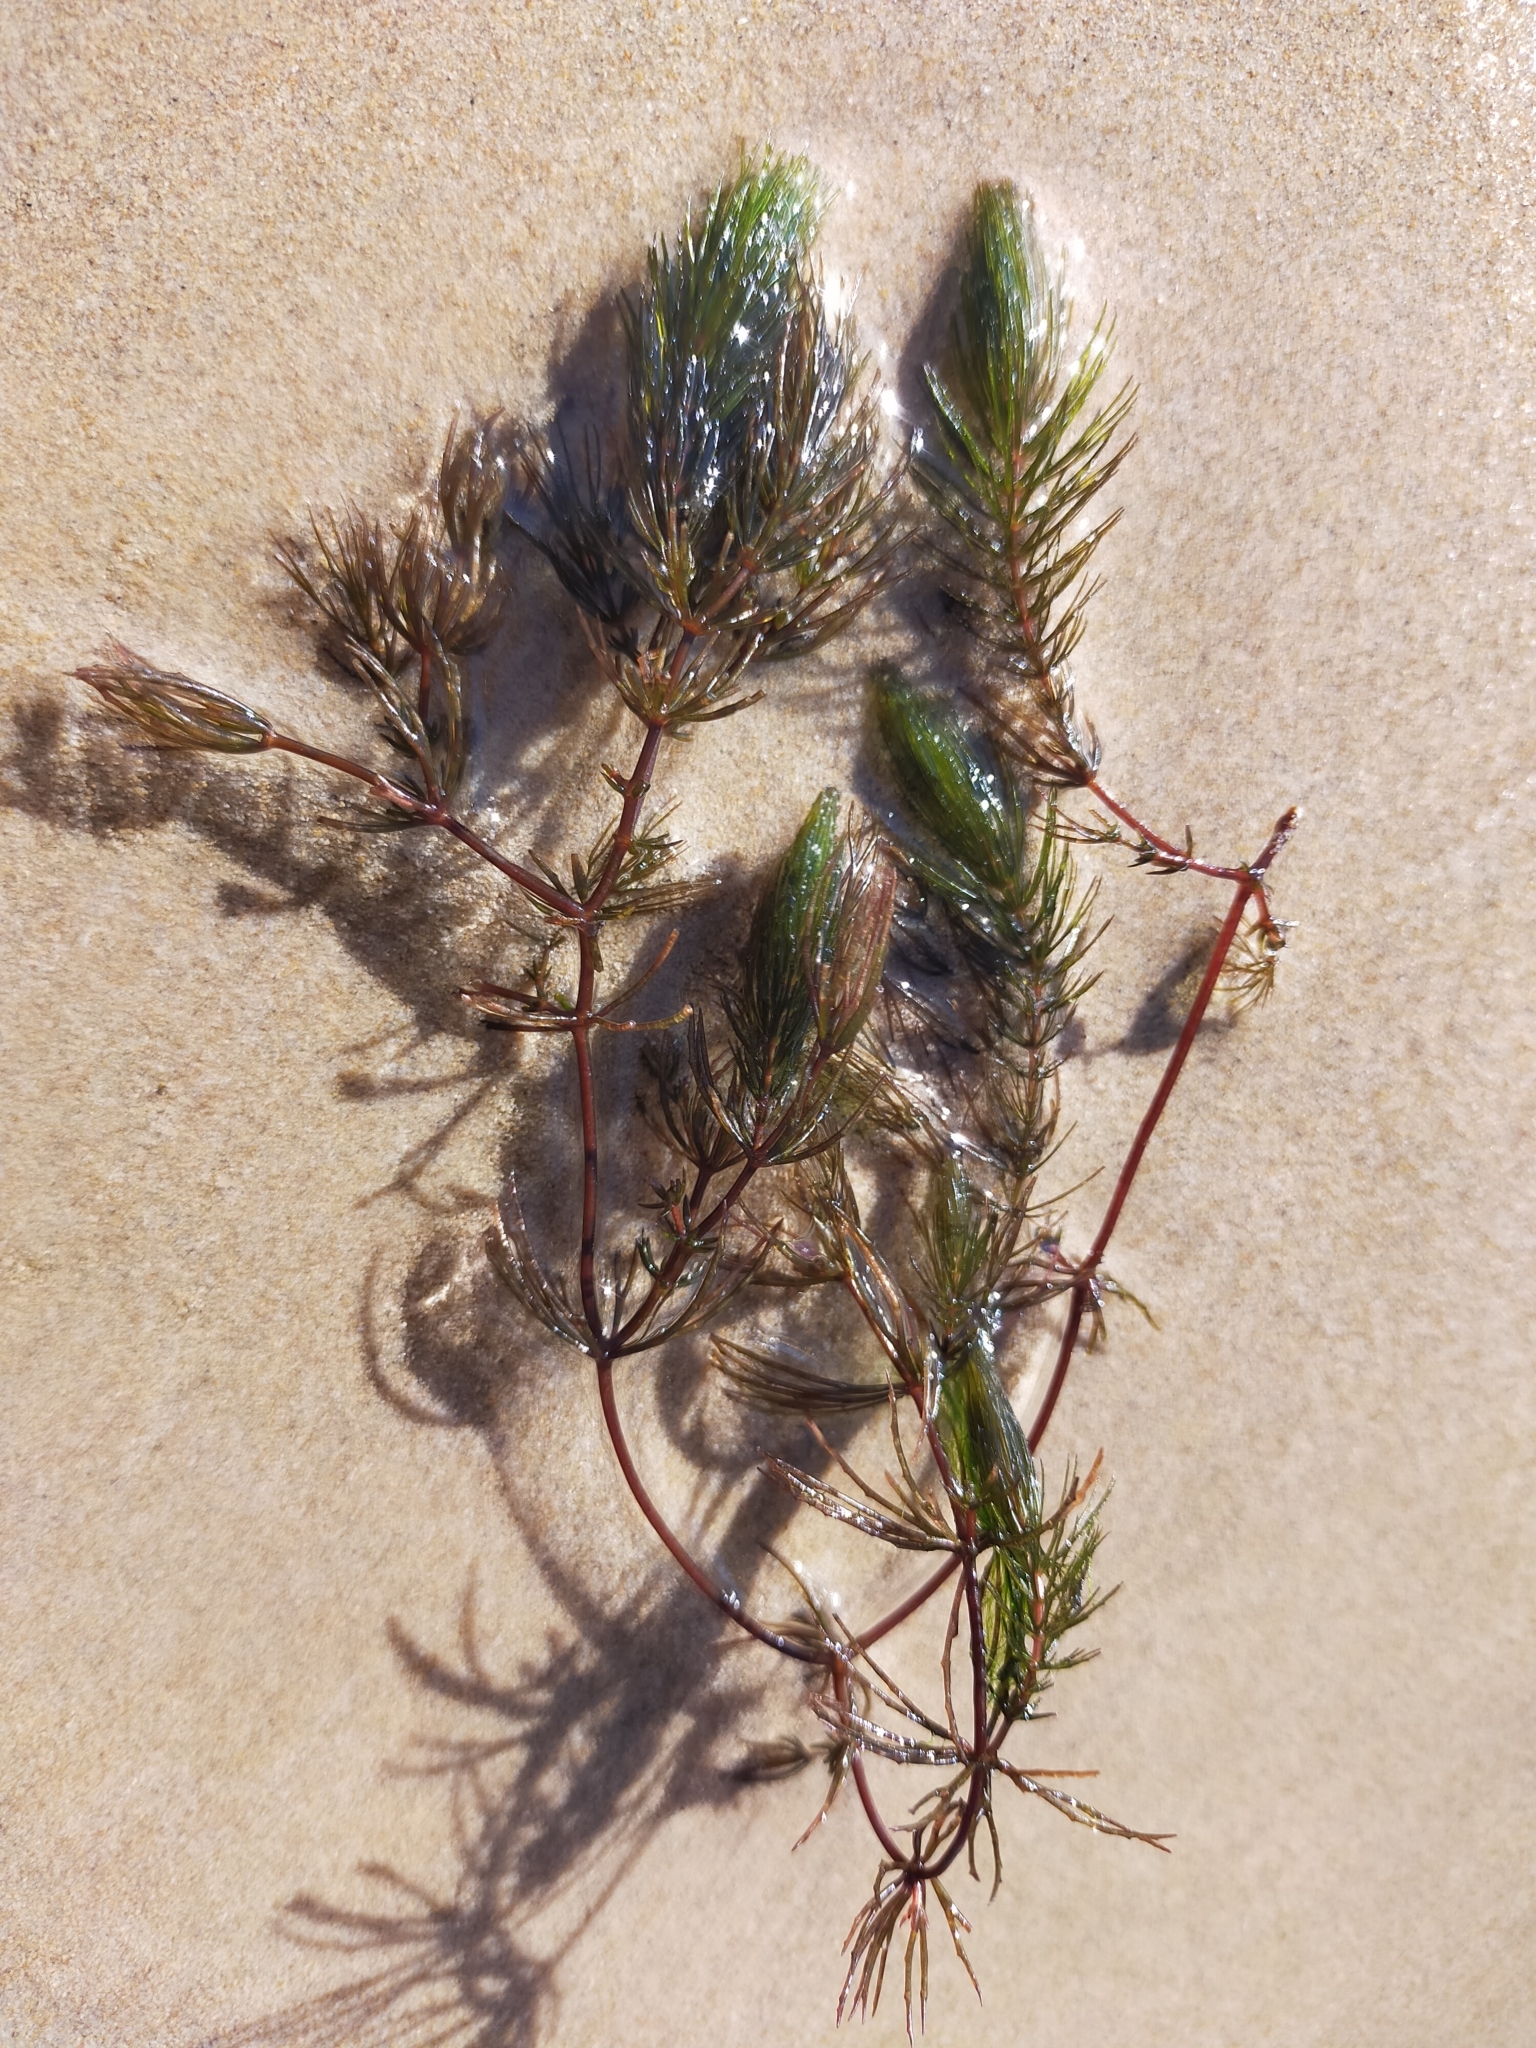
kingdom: Plantae
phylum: Tracheophyta
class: Magnoliopsida
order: Ceratophyllales
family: Ceratophyllaceae
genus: Ceratophyllum
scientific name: Ceratophyllum demersum
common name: Rigid hornwort
